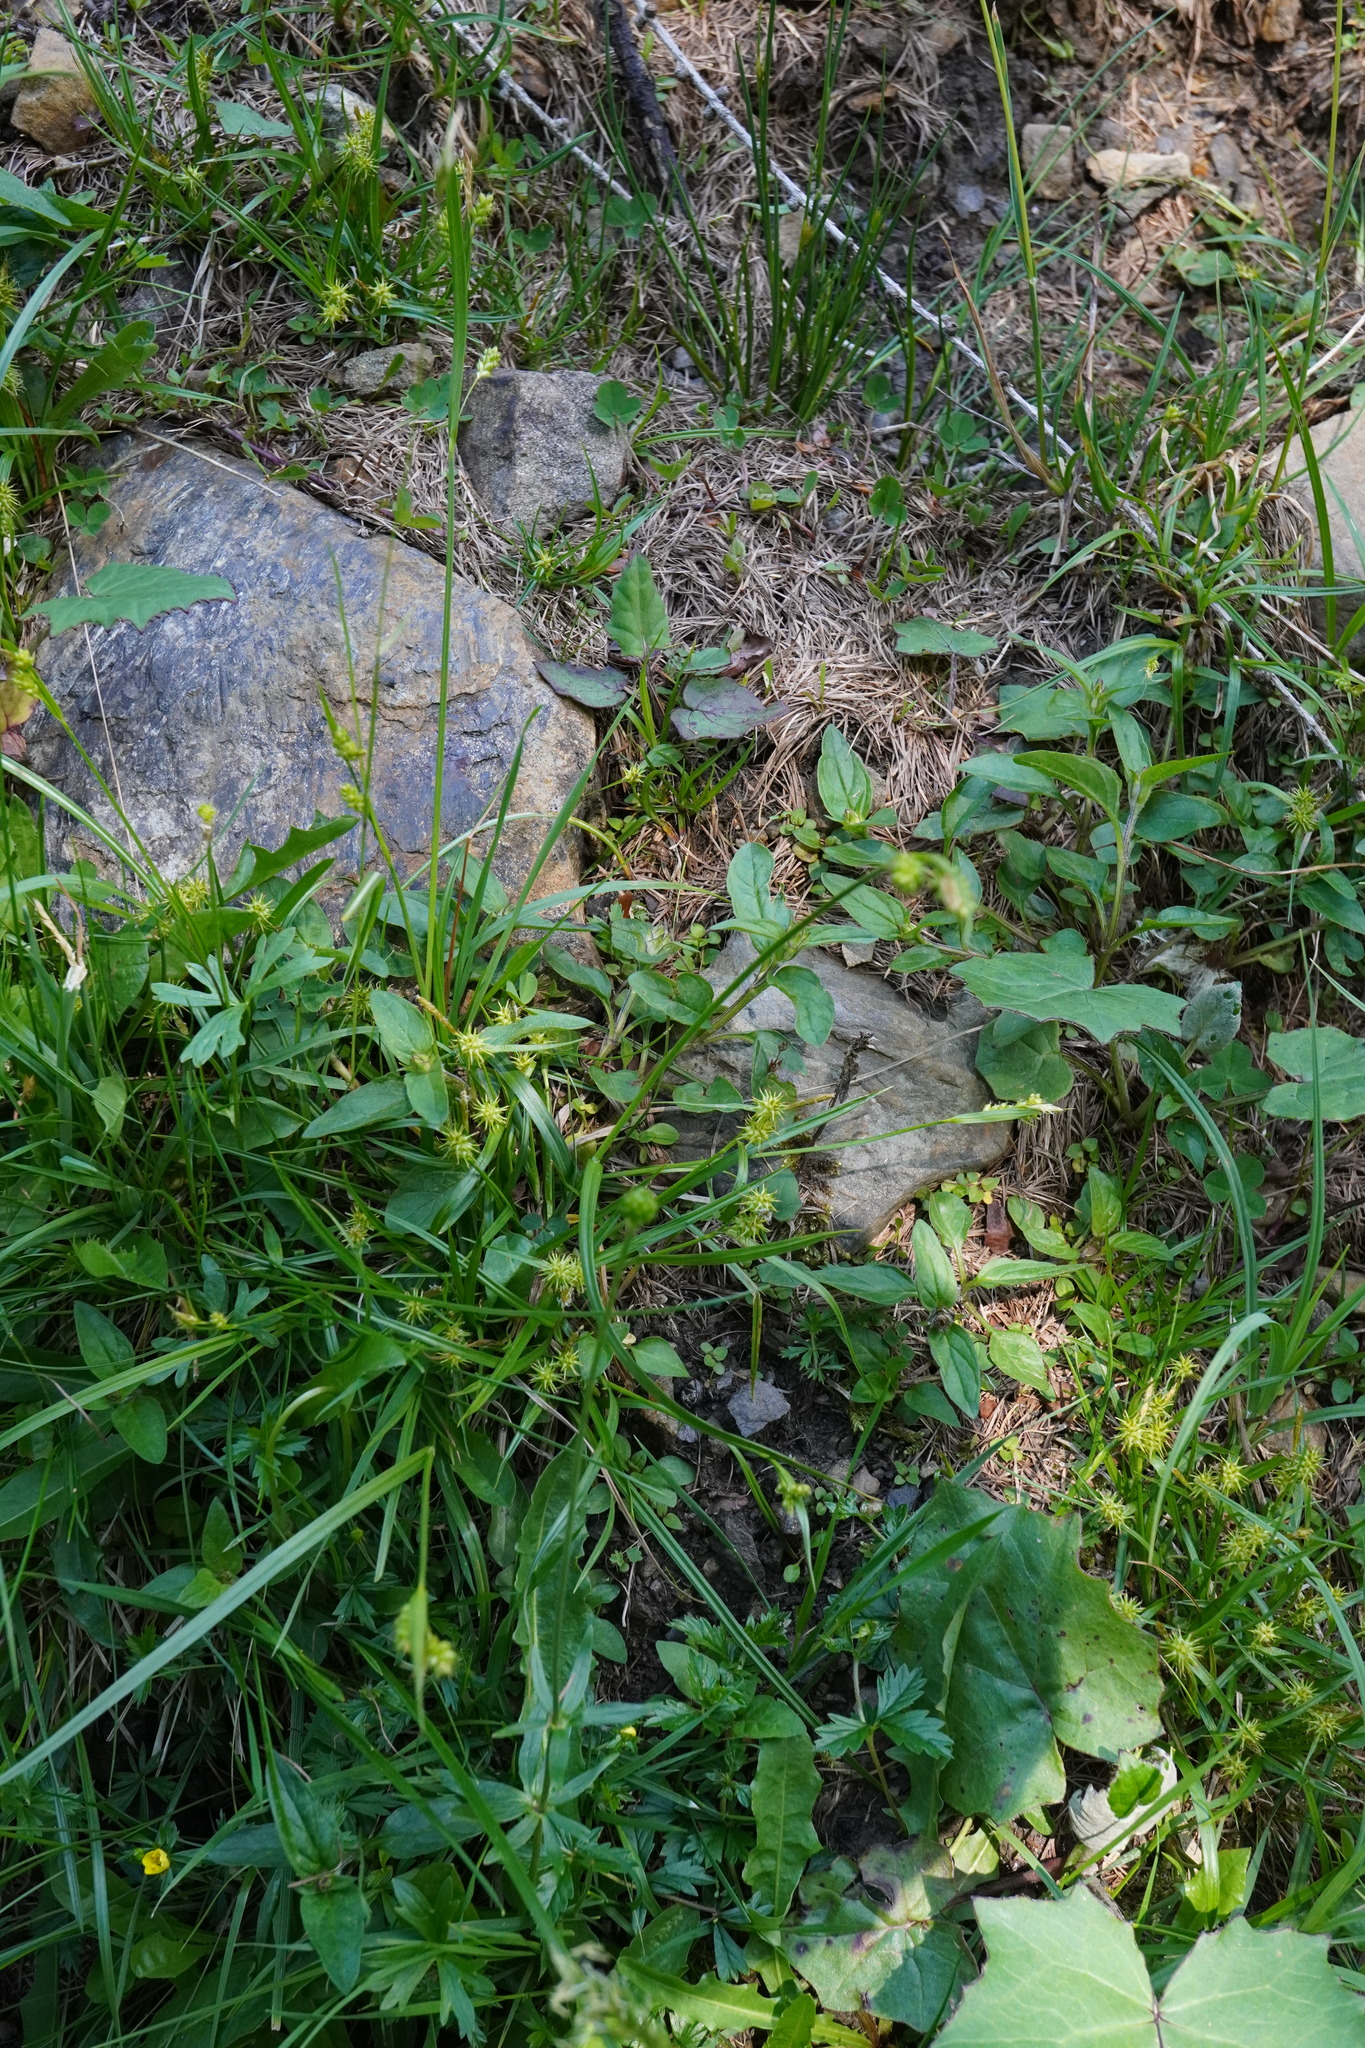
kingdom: Plantae
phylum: Tracheophyta
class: Liliopsida
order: Poales
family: Cyperaceae
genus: Carex
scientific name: Carex pallescens
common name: Pale sedge
